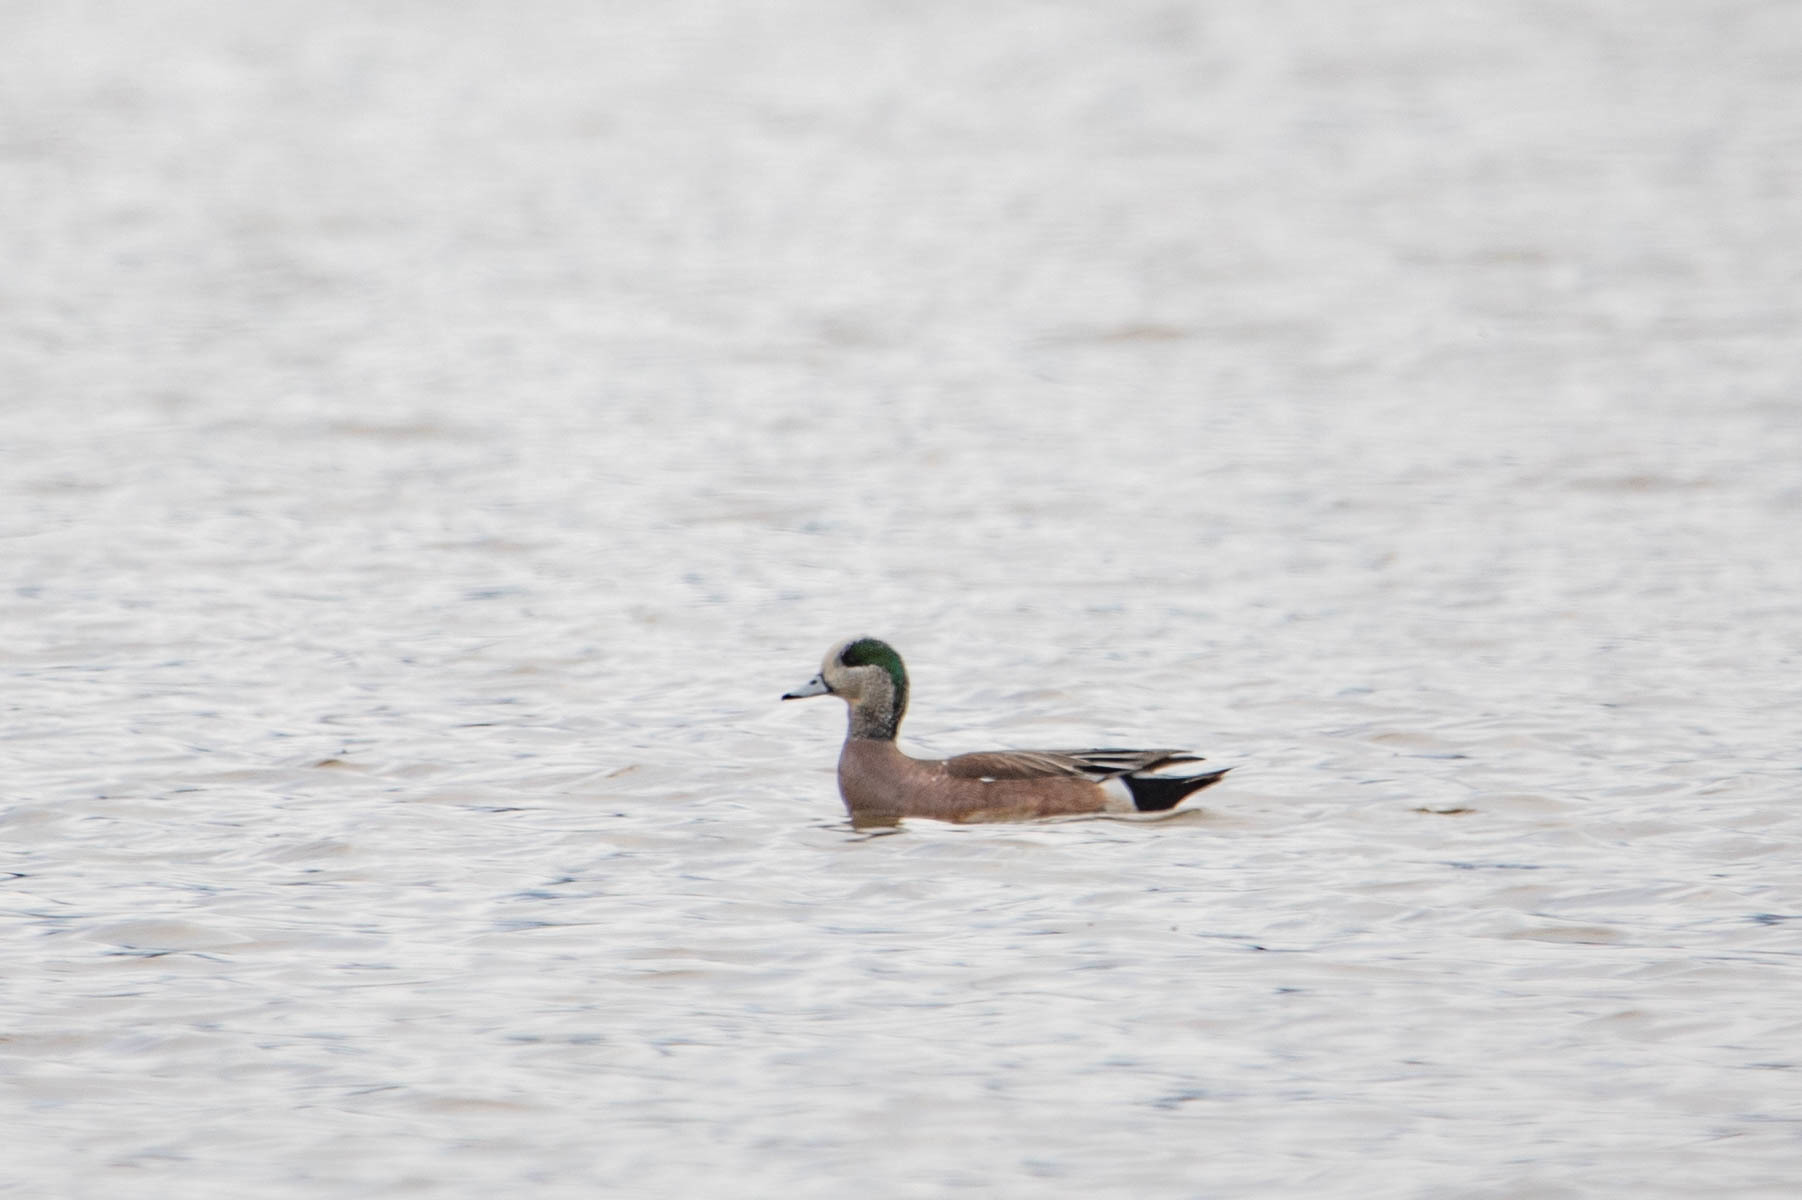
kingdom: Animalia
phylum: Chordata
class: Aves
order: Anseriformes
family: Anatidae
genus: Mareca
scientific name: Mareca americana
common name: American wigeon
